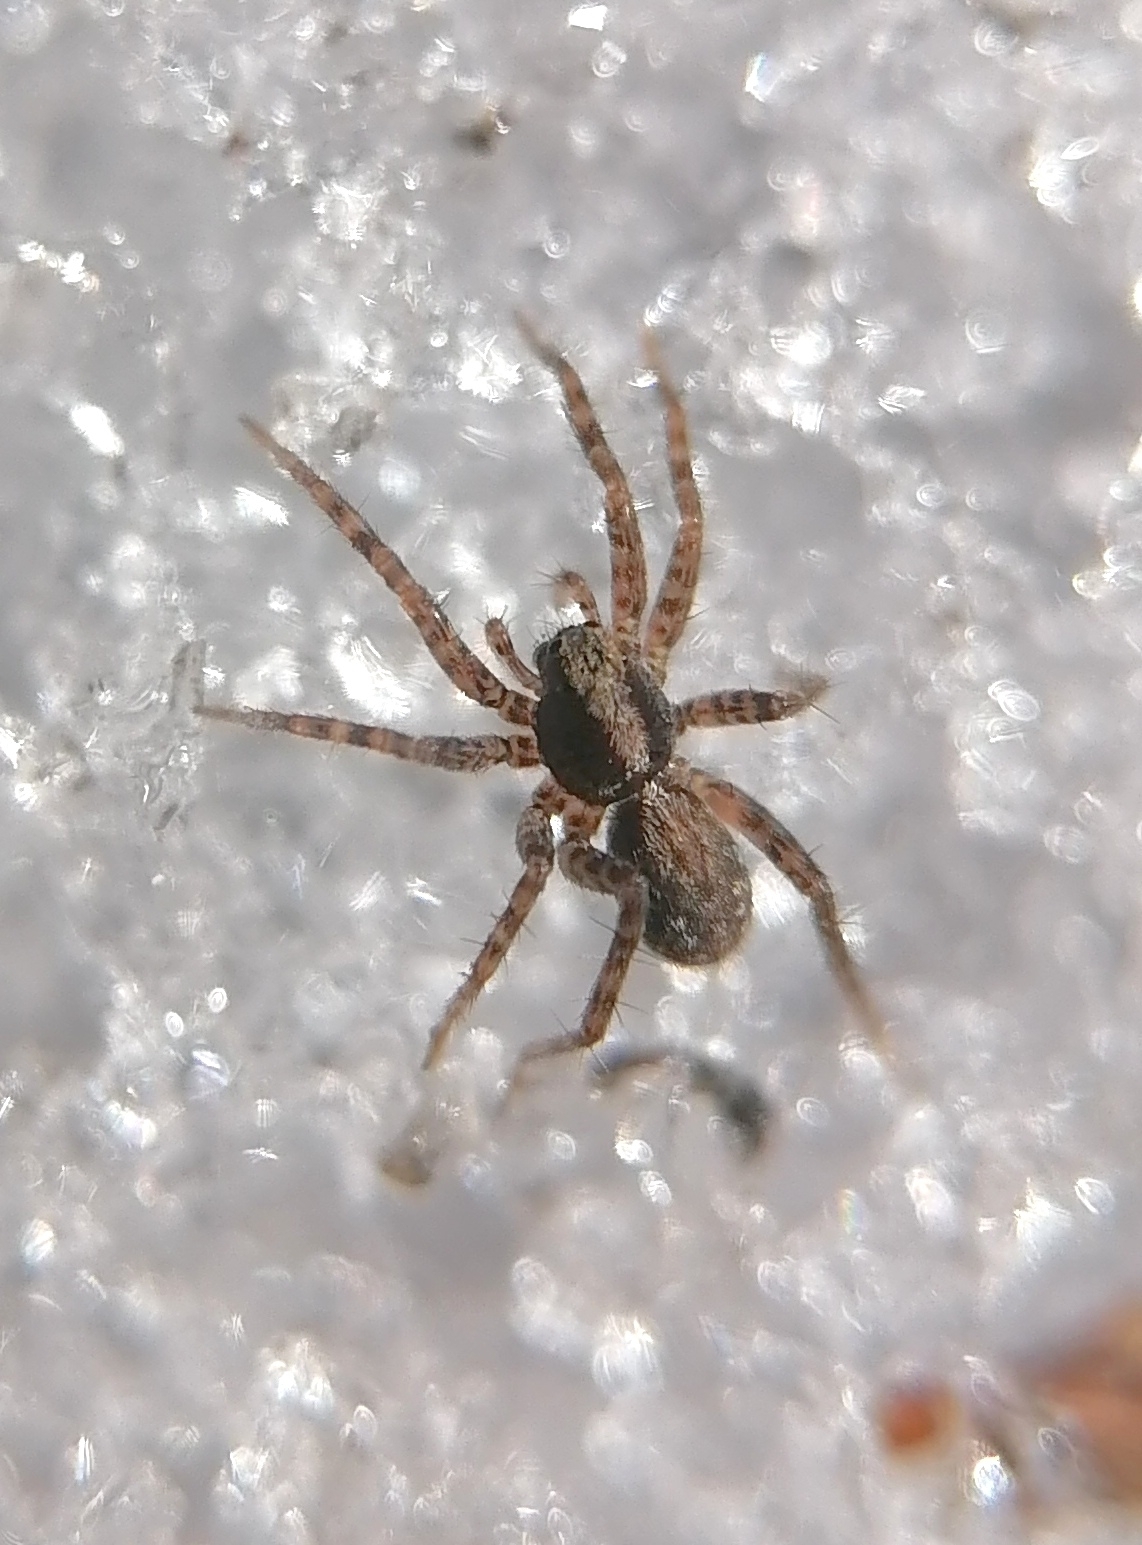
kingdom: Animalia
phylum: Arthropoda
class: Arachnida
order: Araneae
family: Lycosidae
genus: Pardosa
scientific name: Pardosa
